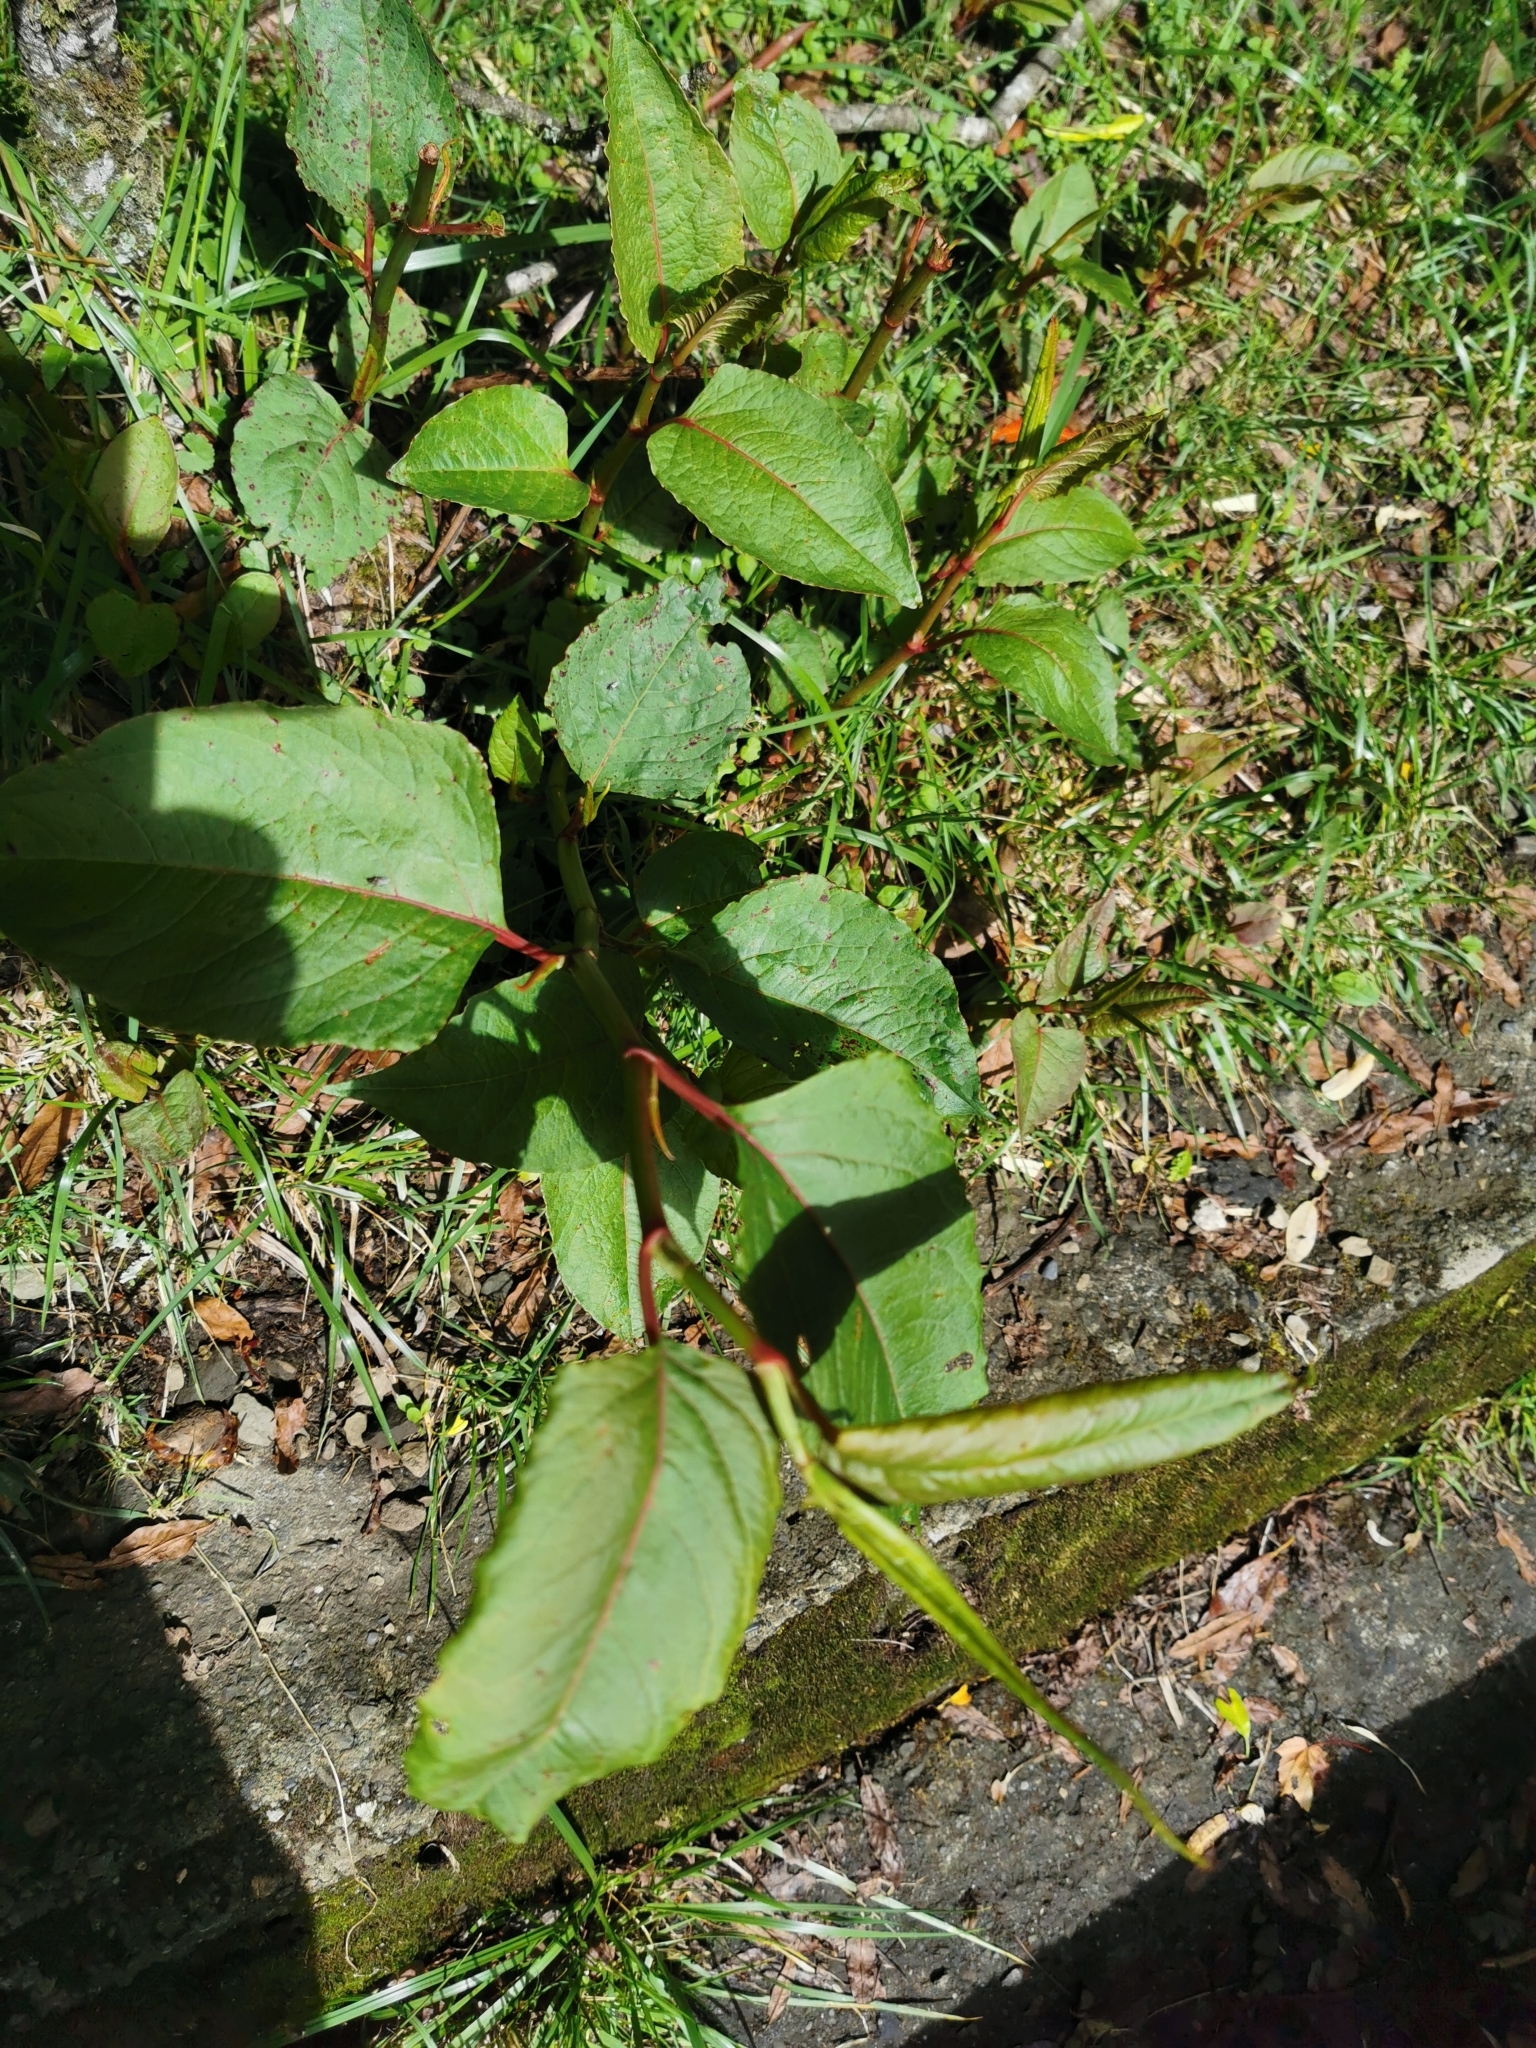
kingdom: Plantae
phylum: Tracheophyta
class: Magnoliopsida
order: Caryophyllales
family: Polygonaceae
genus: Reynoutria
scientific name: Reynoutria japonica
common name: Japanese knotweed
